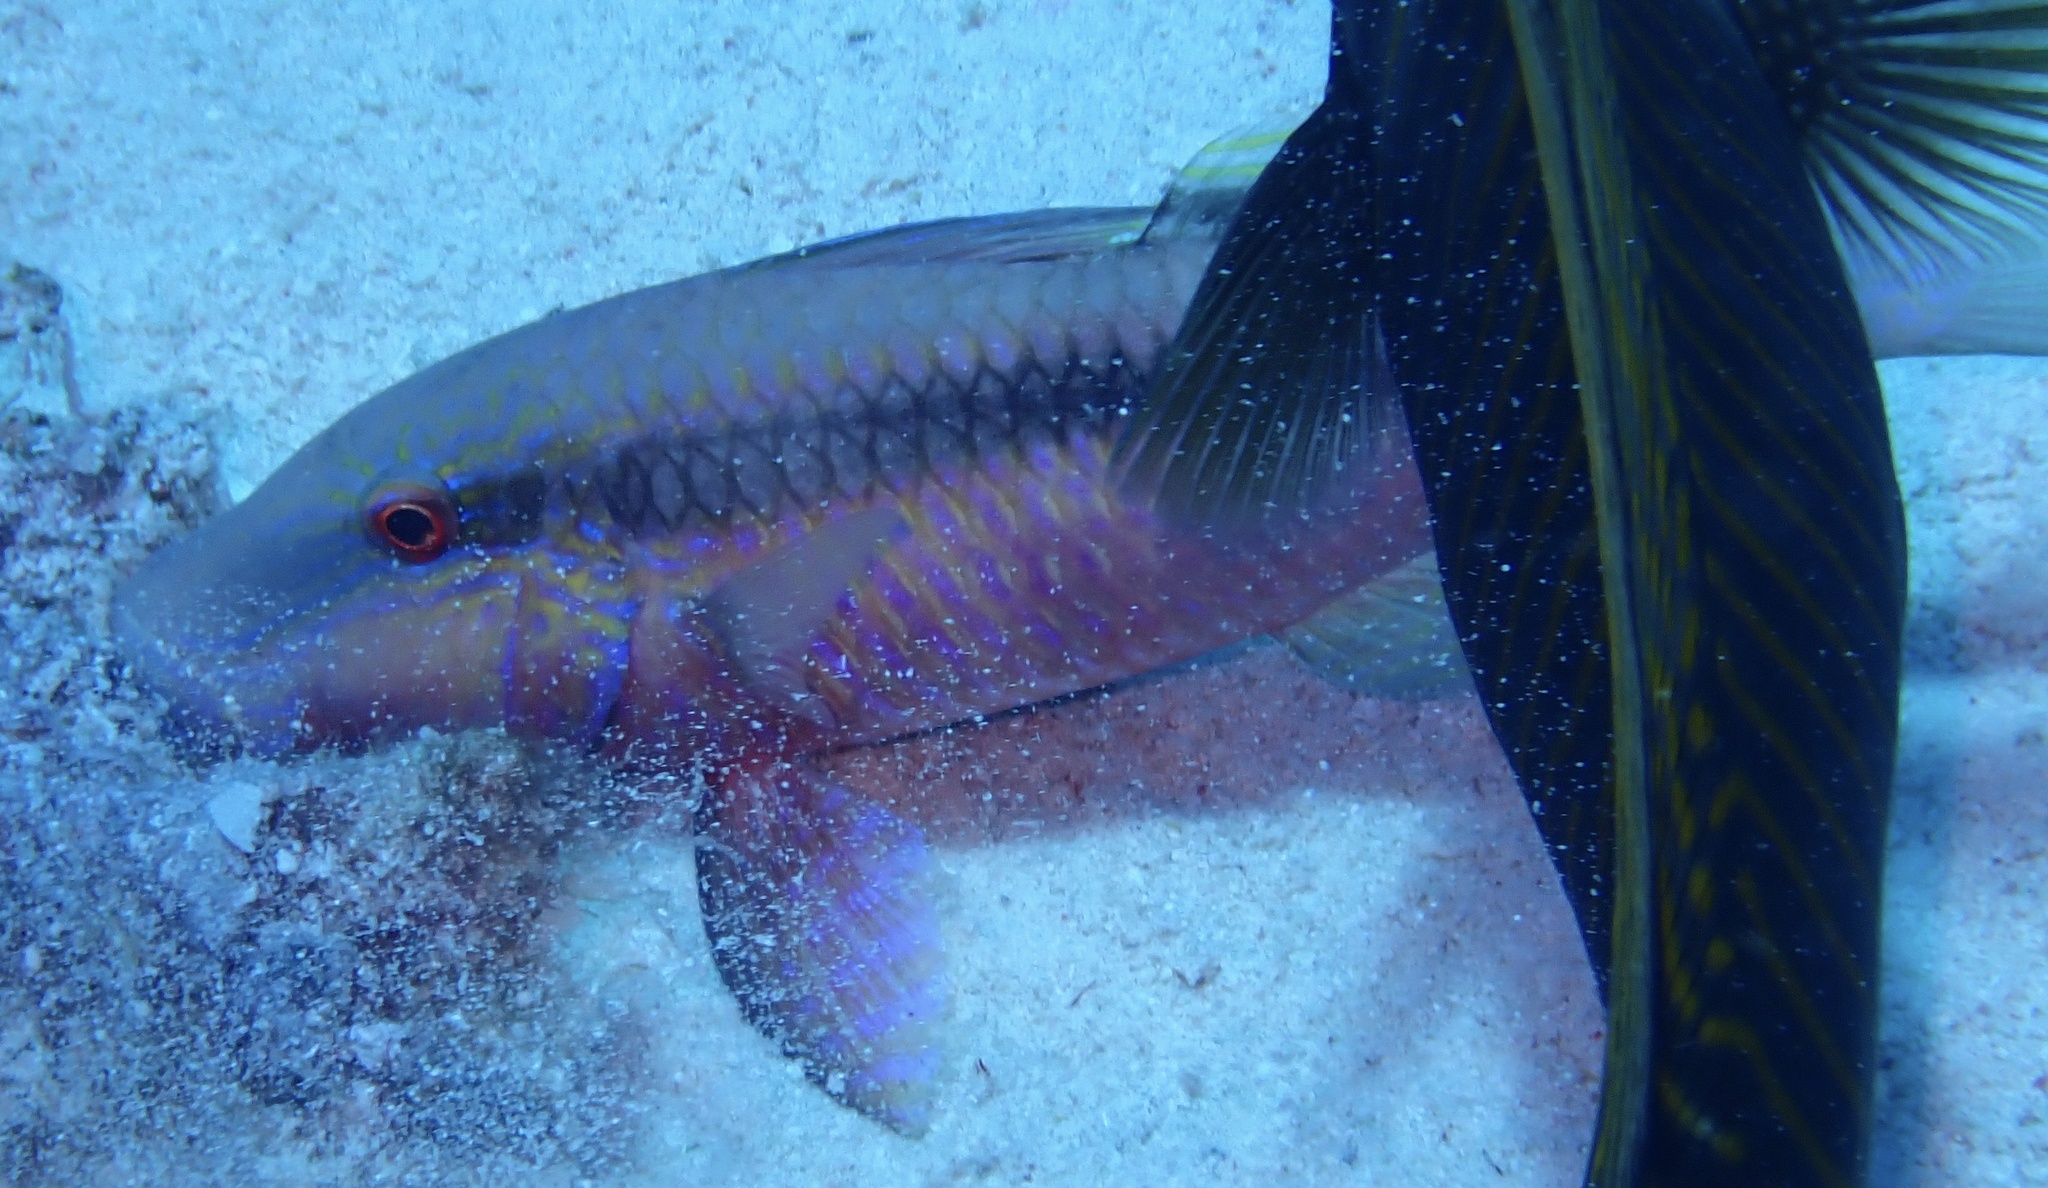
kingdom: Animalia
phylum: Chordata
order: Perciformes
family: Mullidae
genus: Parupeneus
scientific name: Parupeneus macronemus
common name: Long-barbel goatfish
